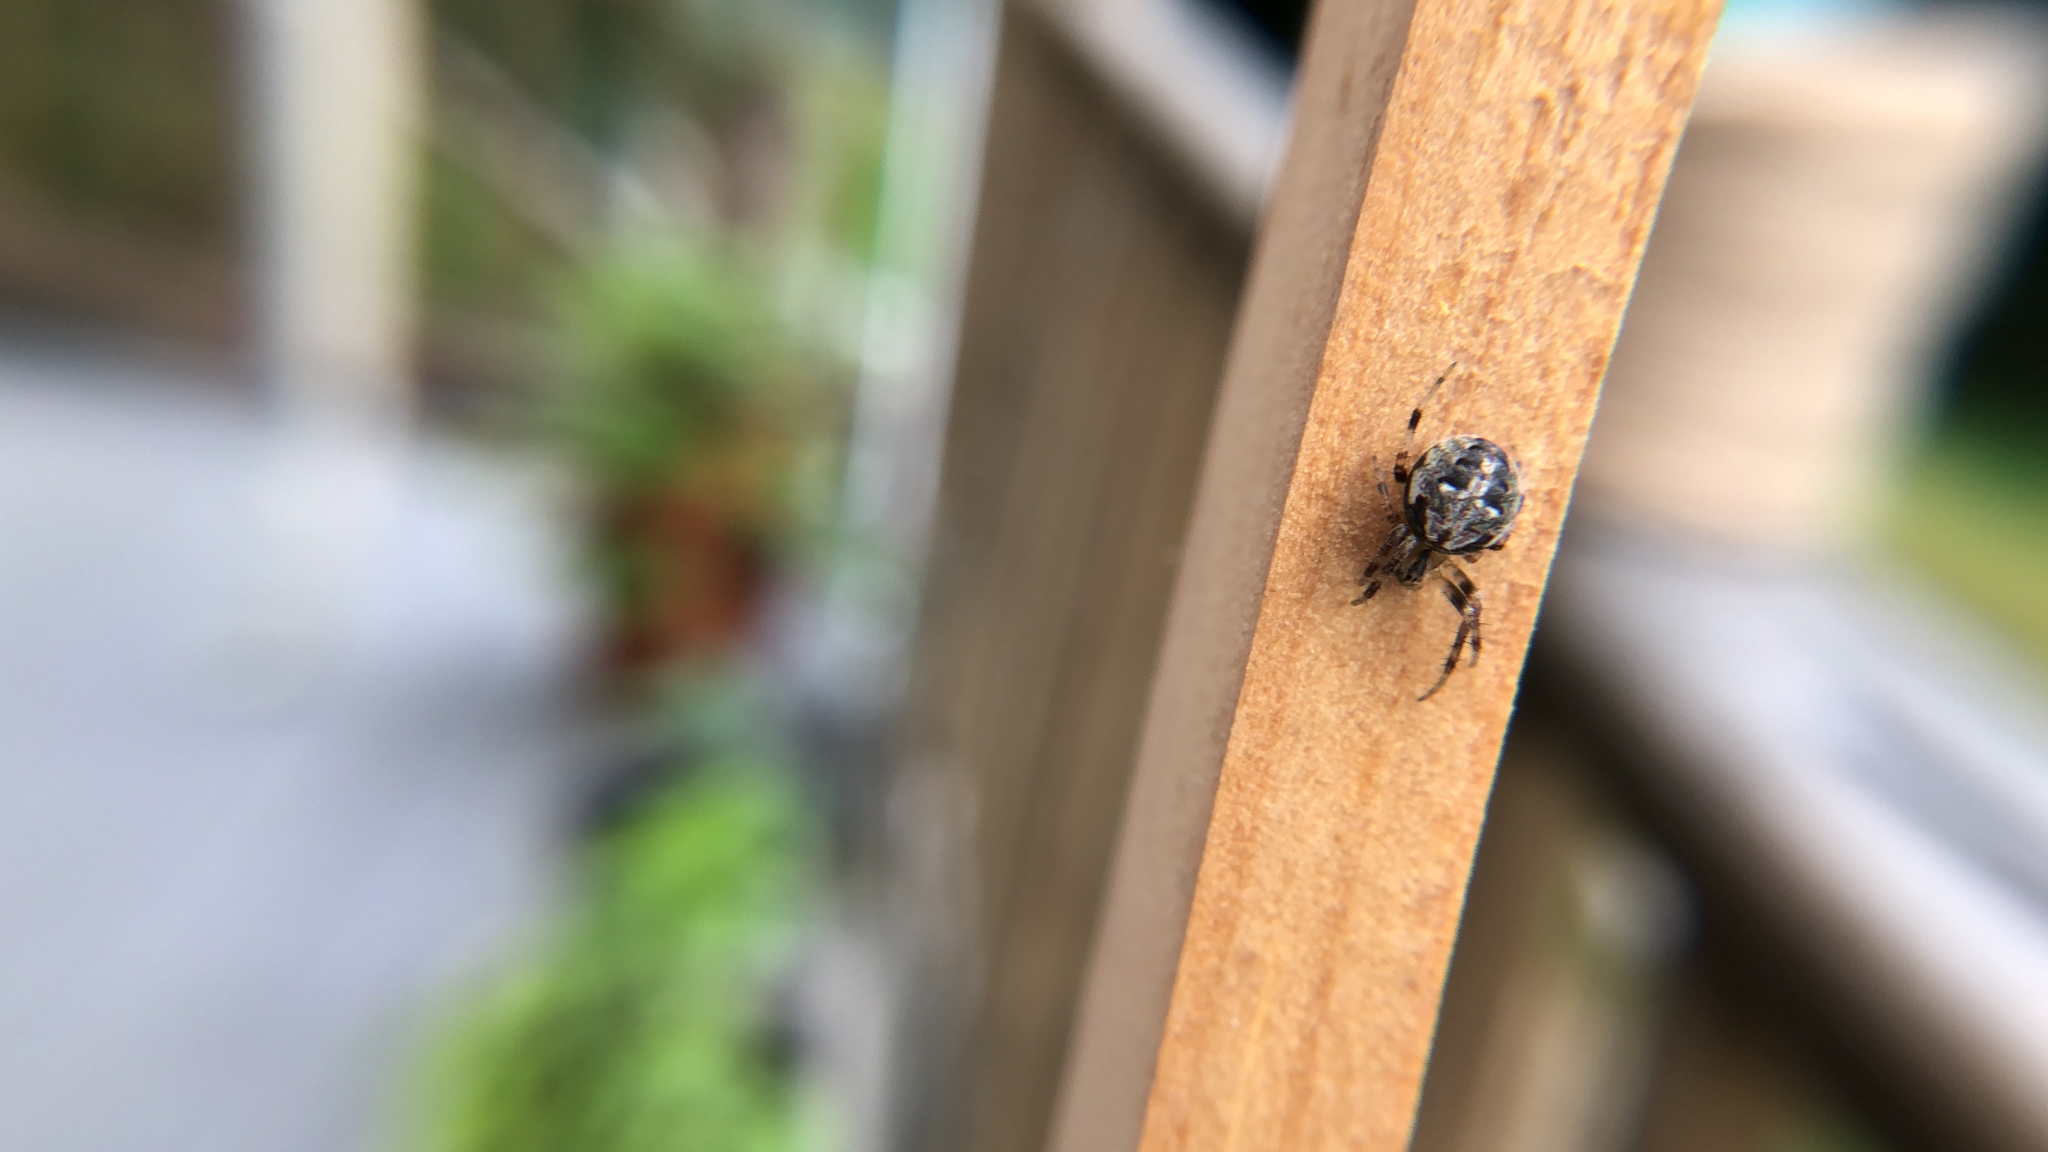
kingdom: Animalia
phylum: Arthropoda
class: Arachnida
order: Araneae
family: Araneidae
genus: Neoscona
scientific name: Neoscona arabesca
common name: Orb weavers
